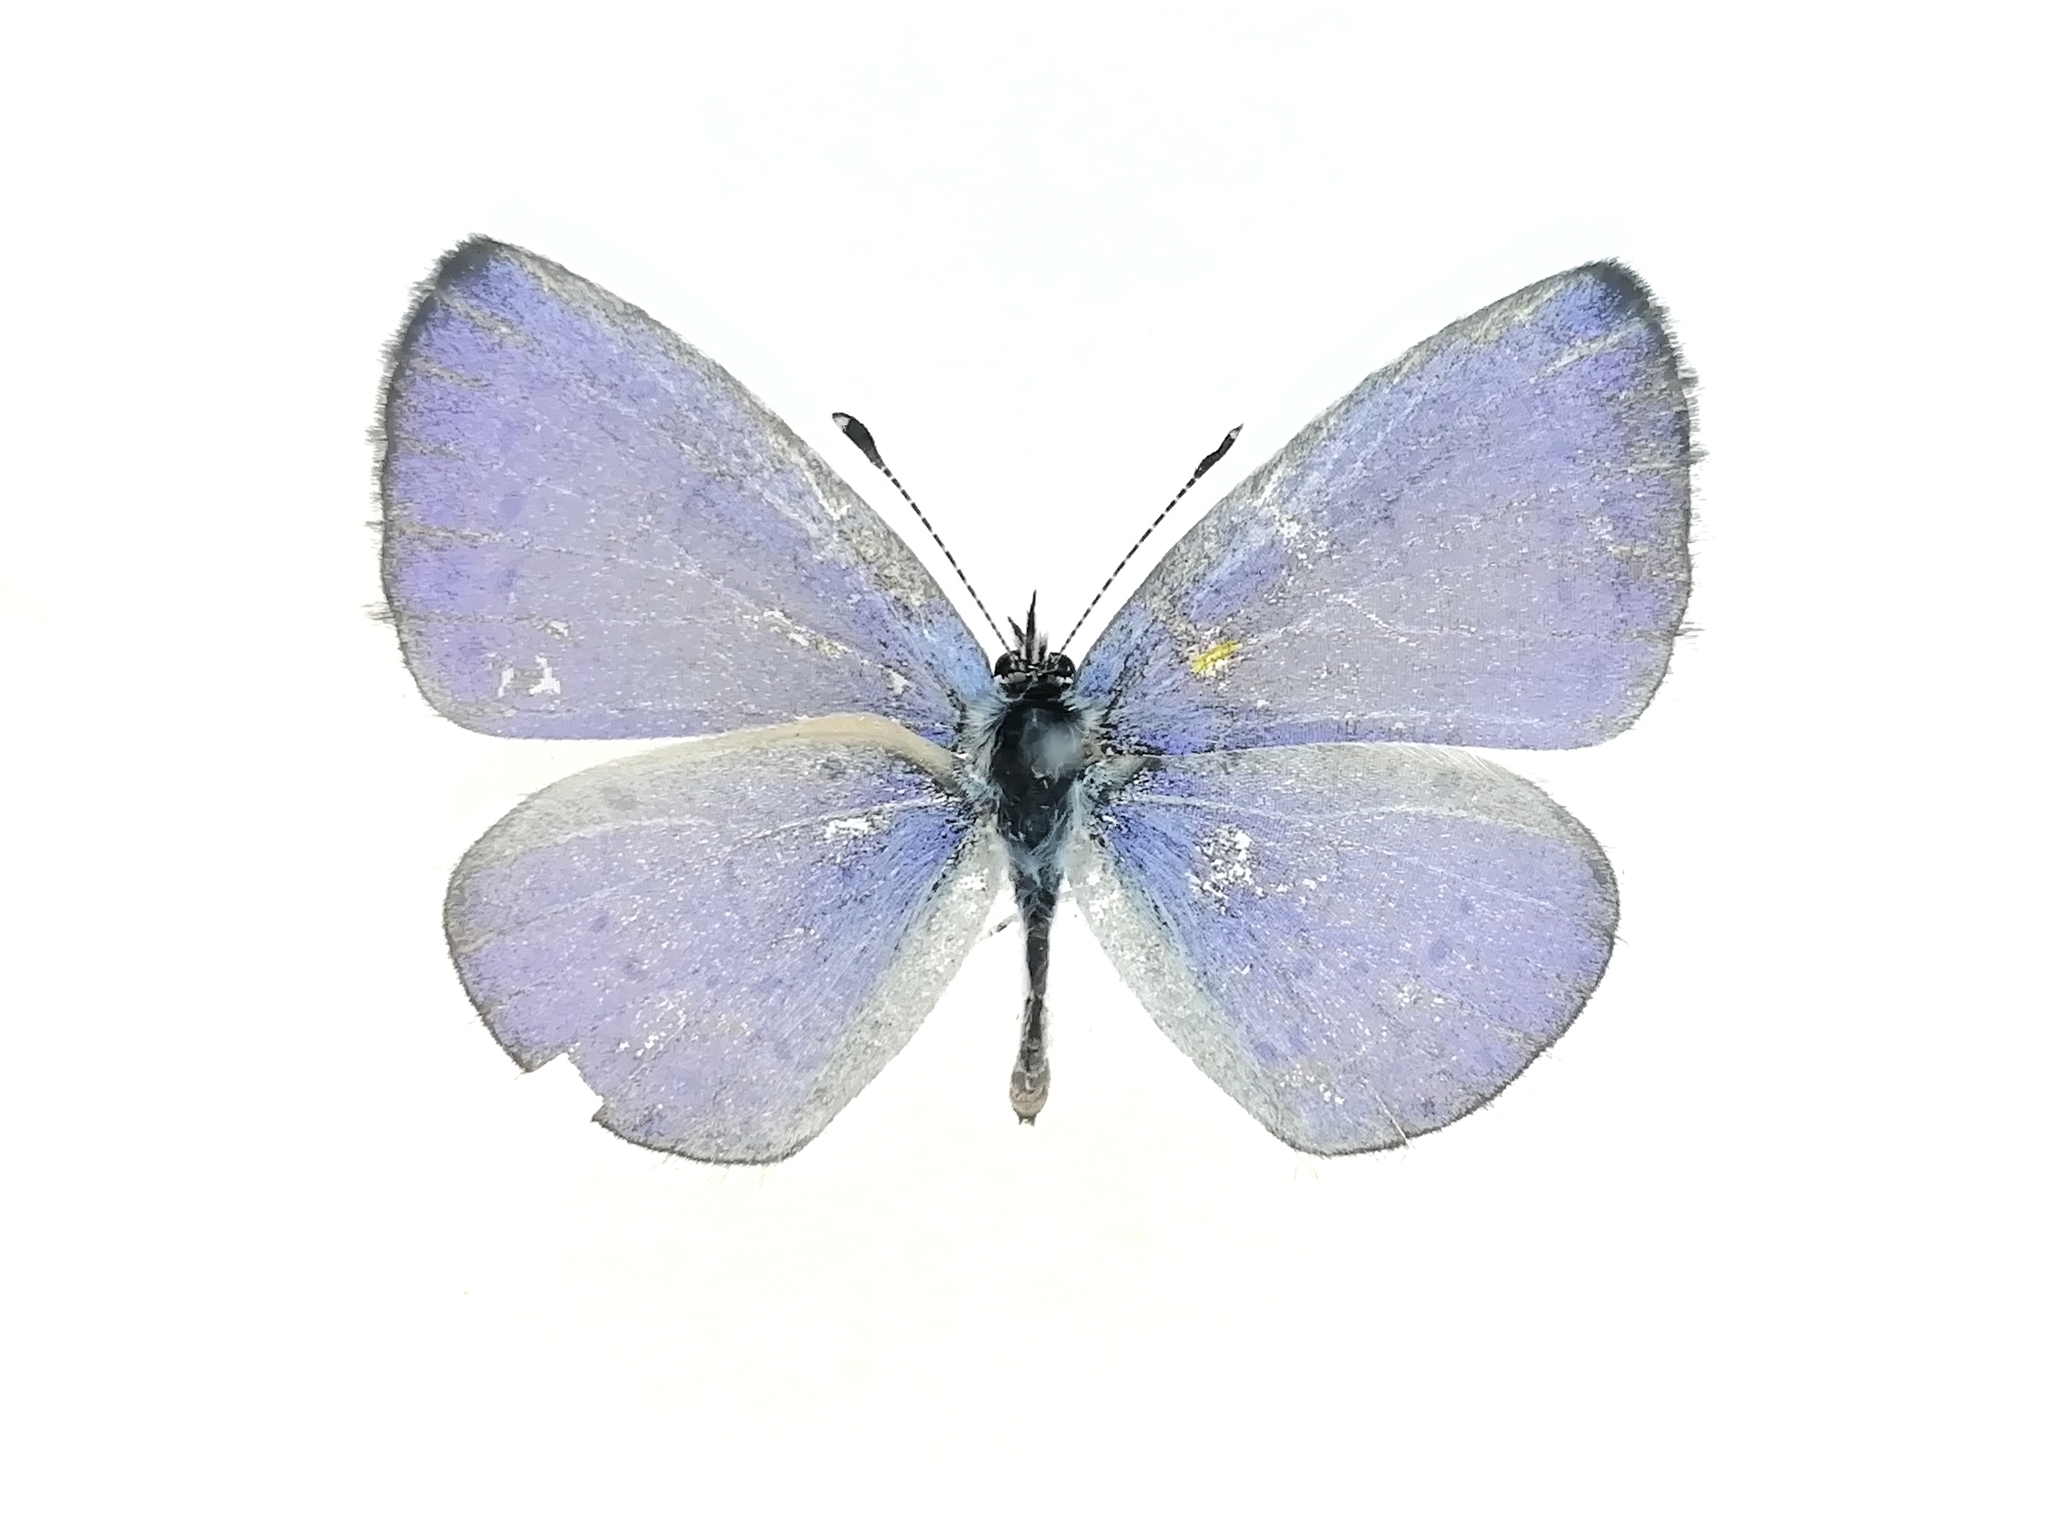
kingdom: Animalia
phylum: Arthropoda
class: Insecta
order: Lepidoptera
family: Lycaenidae
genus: Celastrina
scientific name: Celastrina argiolus
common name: Holly blue
